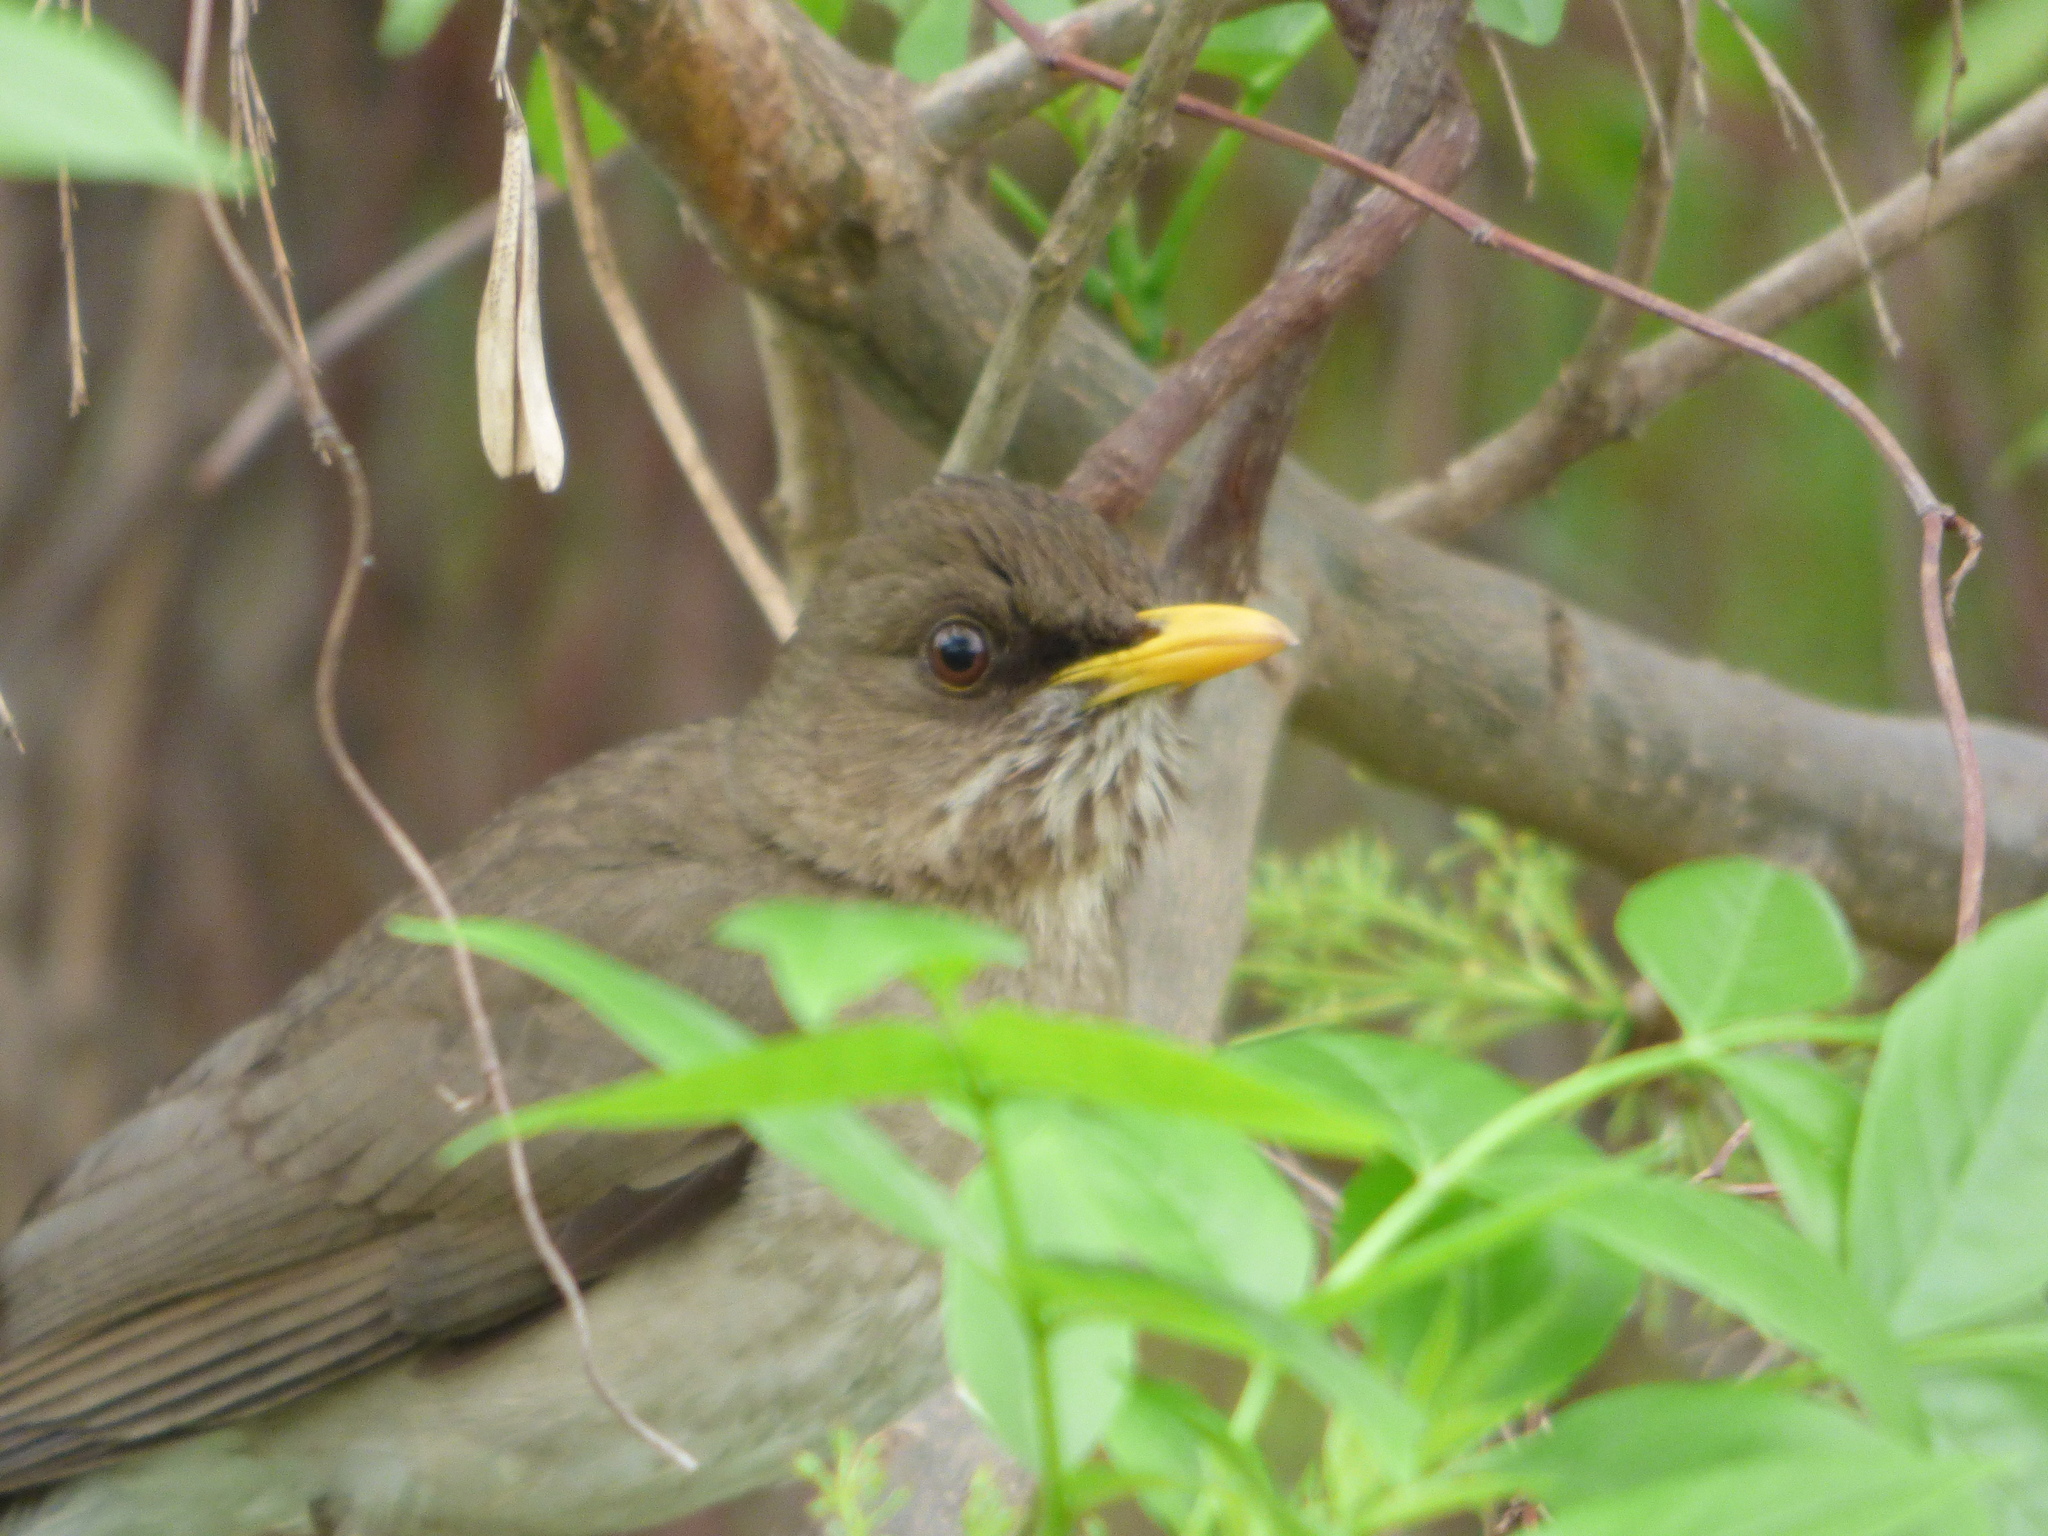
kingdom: Animalia
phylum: Chordata
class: Aves
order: Passeriformes
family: Turdidae
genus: Turdus
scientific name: Turdus amaurochalinus
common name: Creamy-bellied thrush
